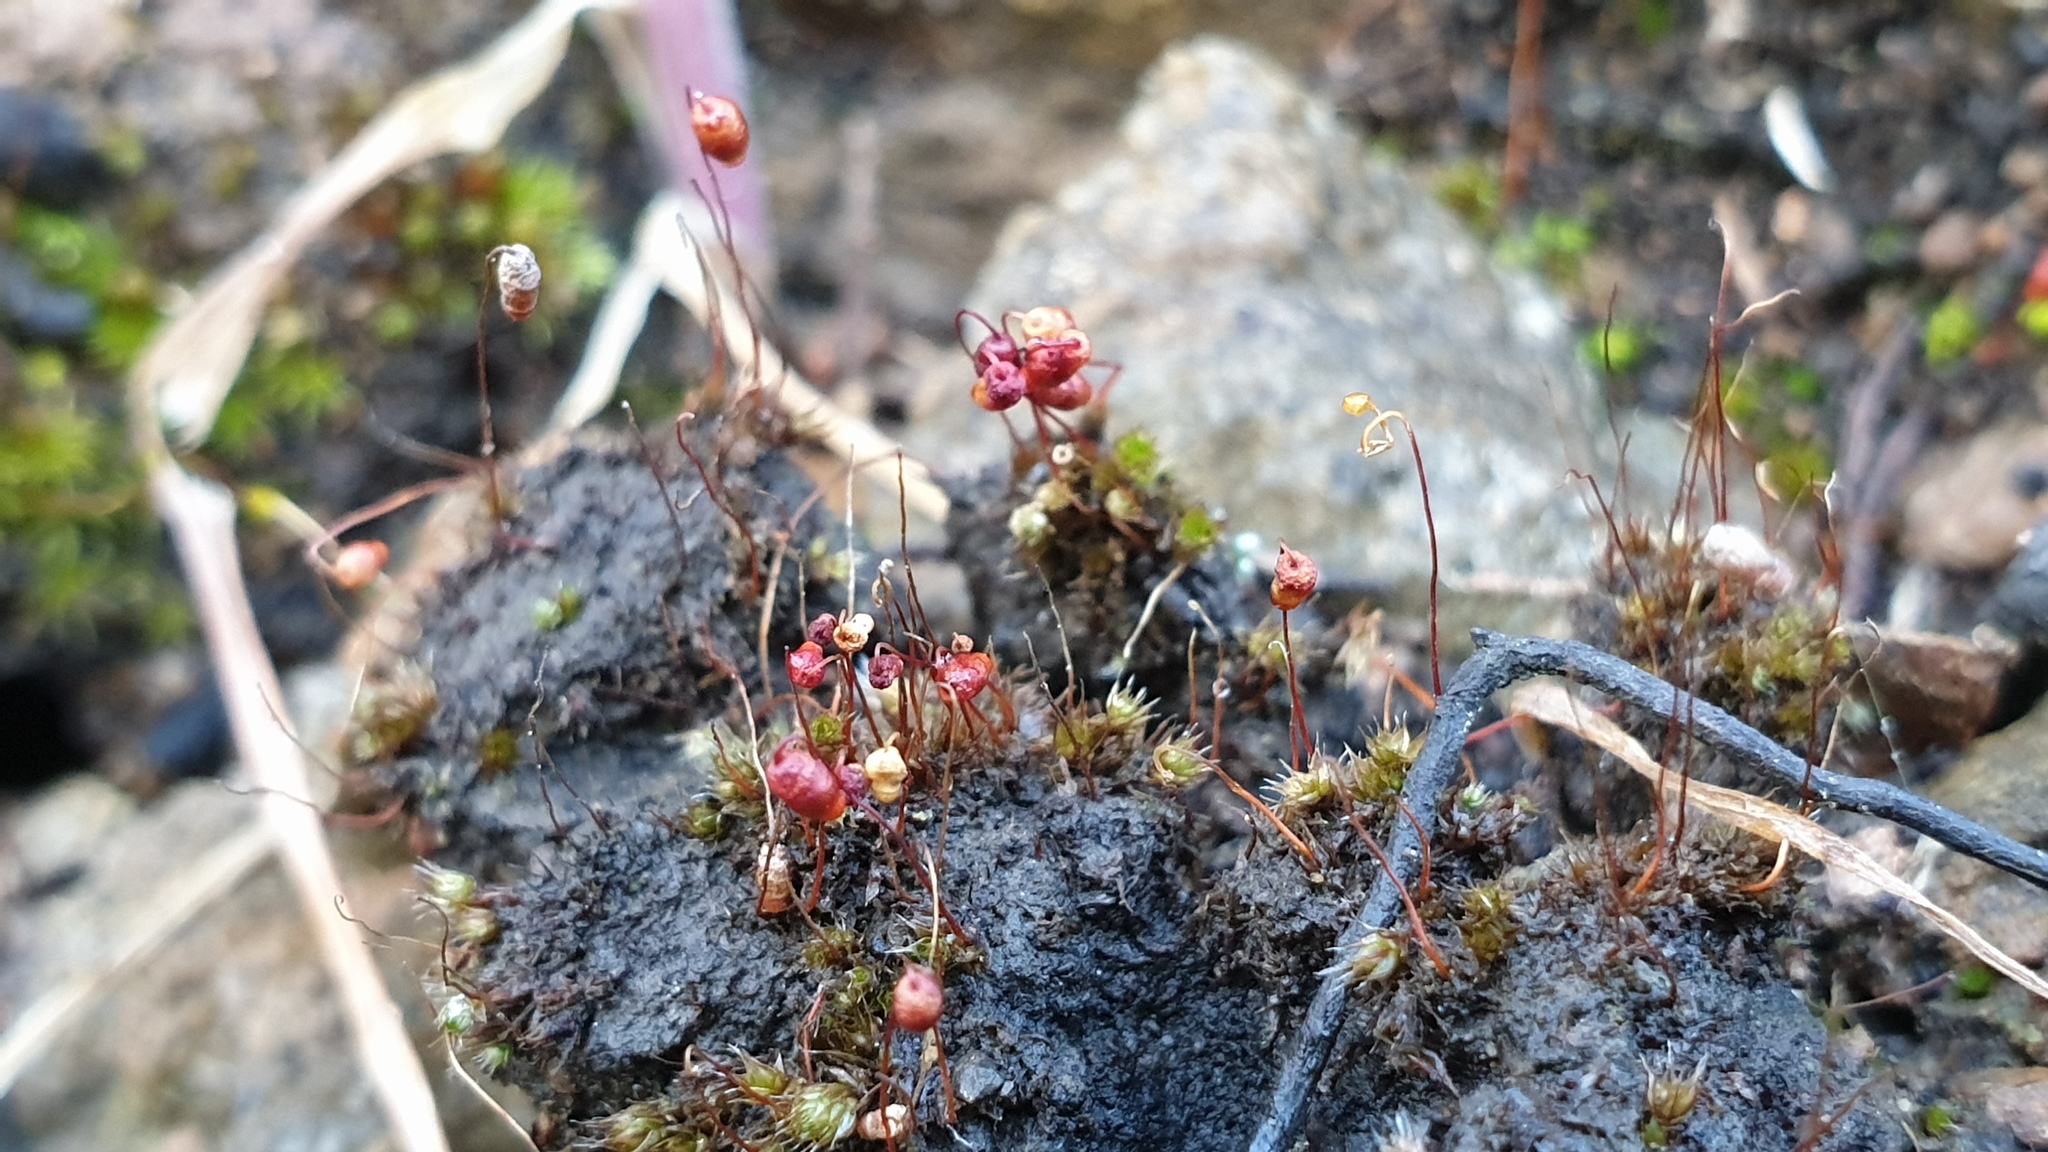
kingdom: Plantae
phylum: Bryophyta
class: Bryopsida
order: Bryales
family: Bryaceae
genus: Gemmabryum
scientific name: Gemmabryum coronatum
